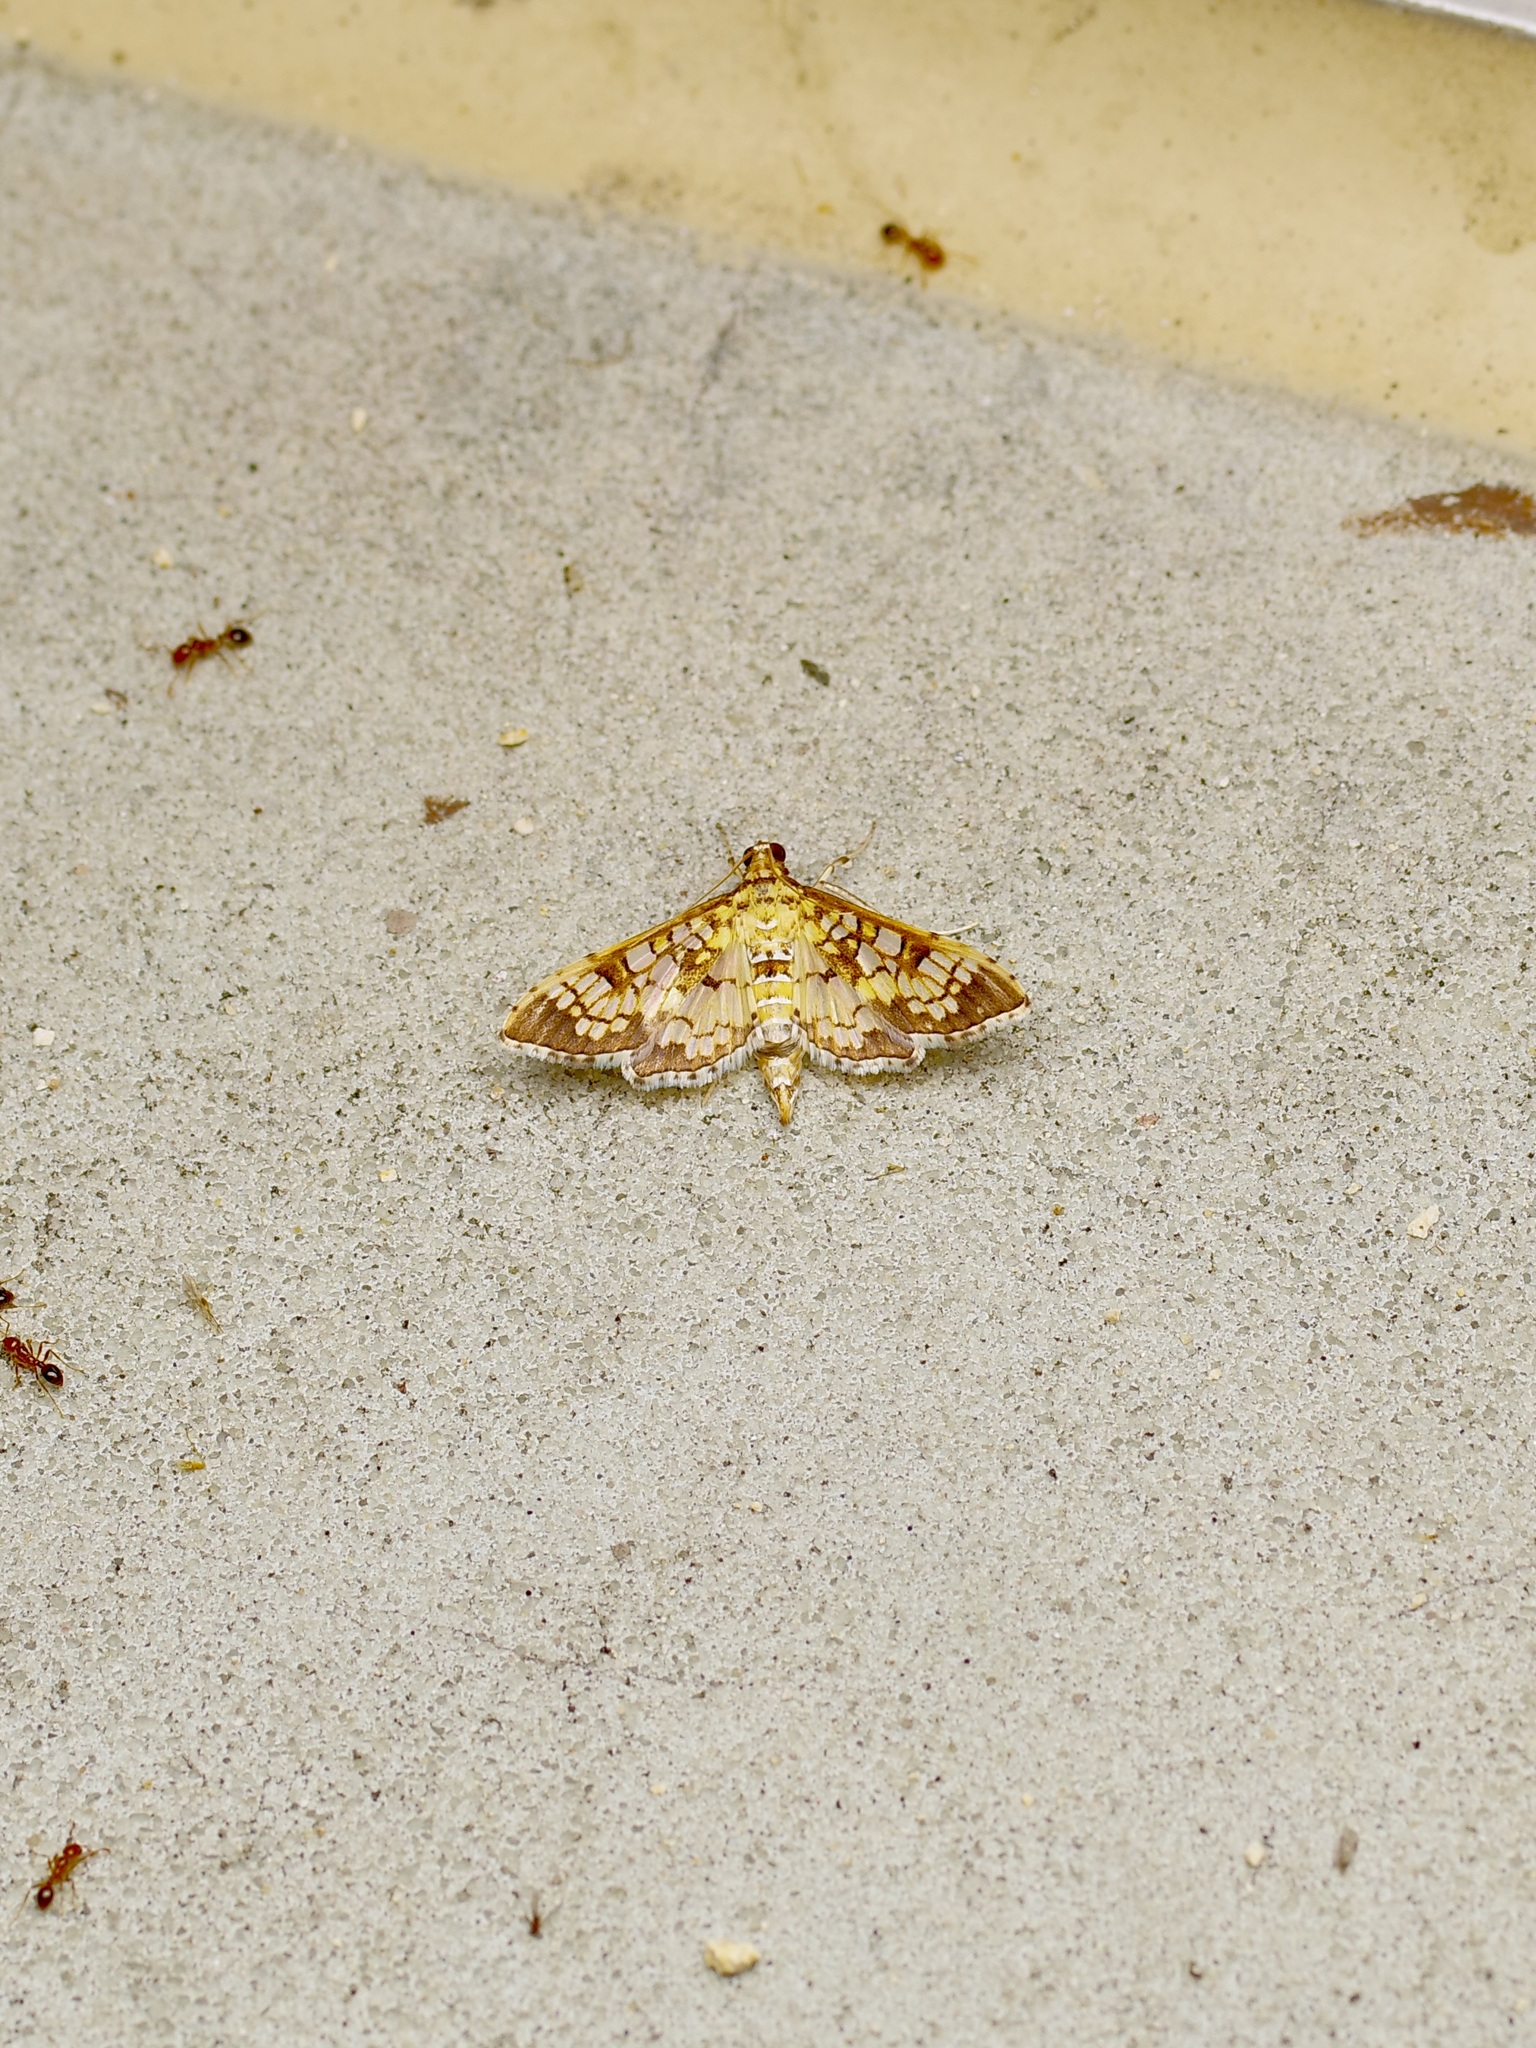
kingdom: Animalia
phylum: Arthropoda
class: Insecta
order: Lepidoptera
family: Crambidae
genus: Samea
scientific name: Samea ecclesialis
